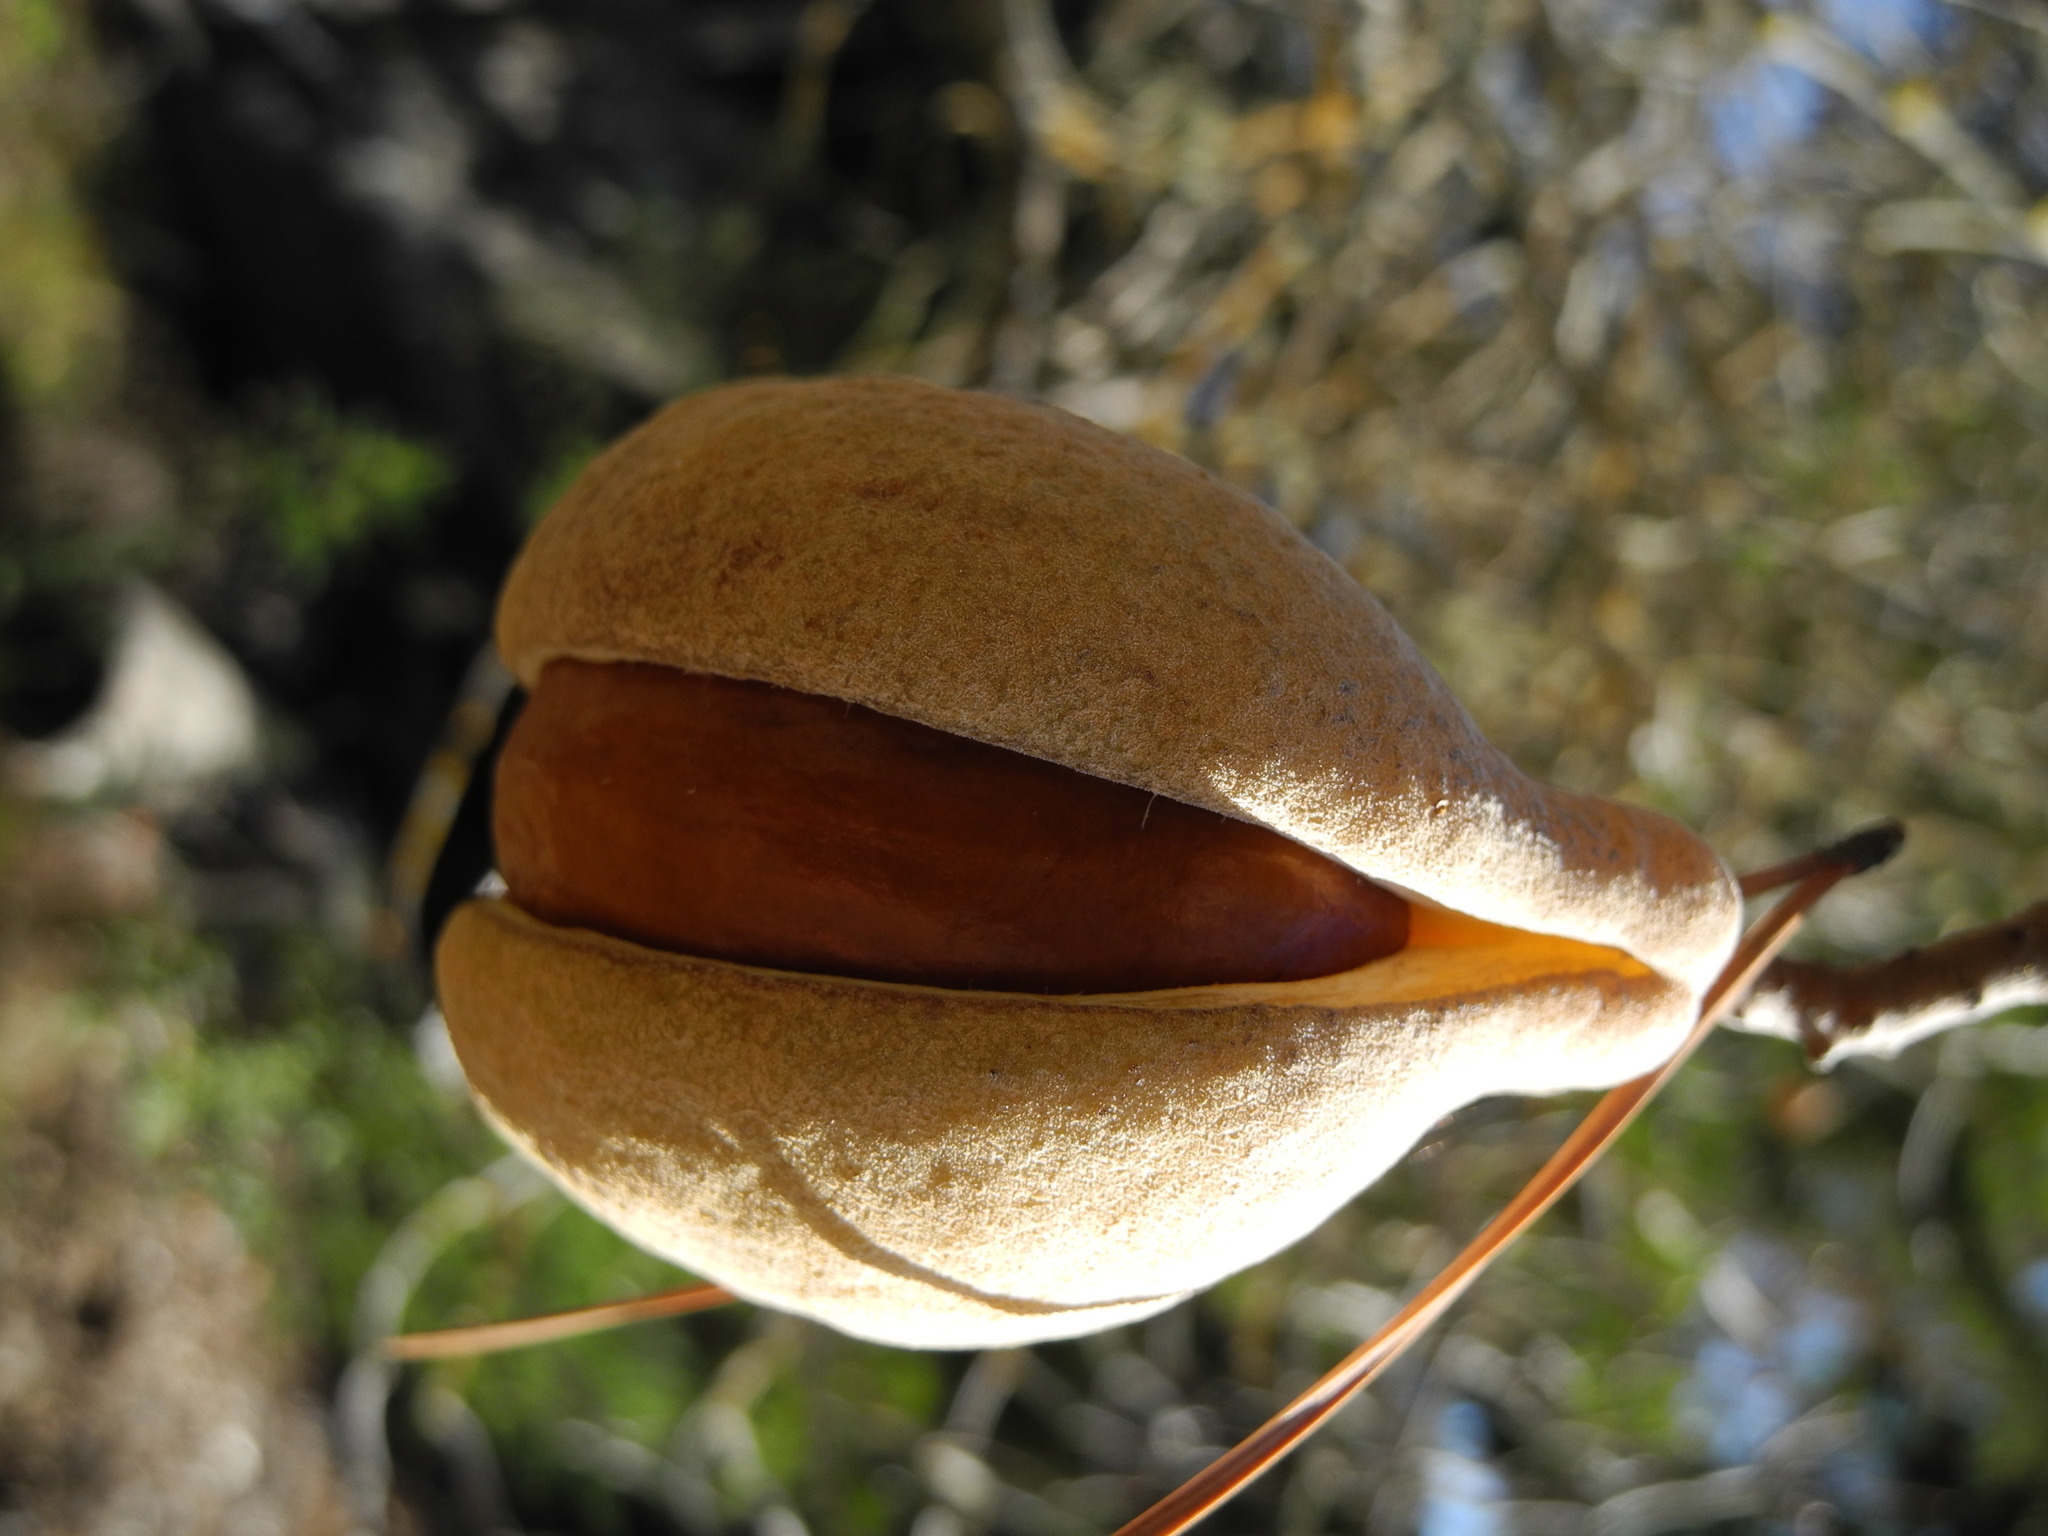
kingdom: Plantae
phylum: Tracheophyta
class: Magnoliopsida
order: Sapindales
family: Sapindaceae
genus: Aesculus
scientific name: Aesculus californica
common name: California buckeye
